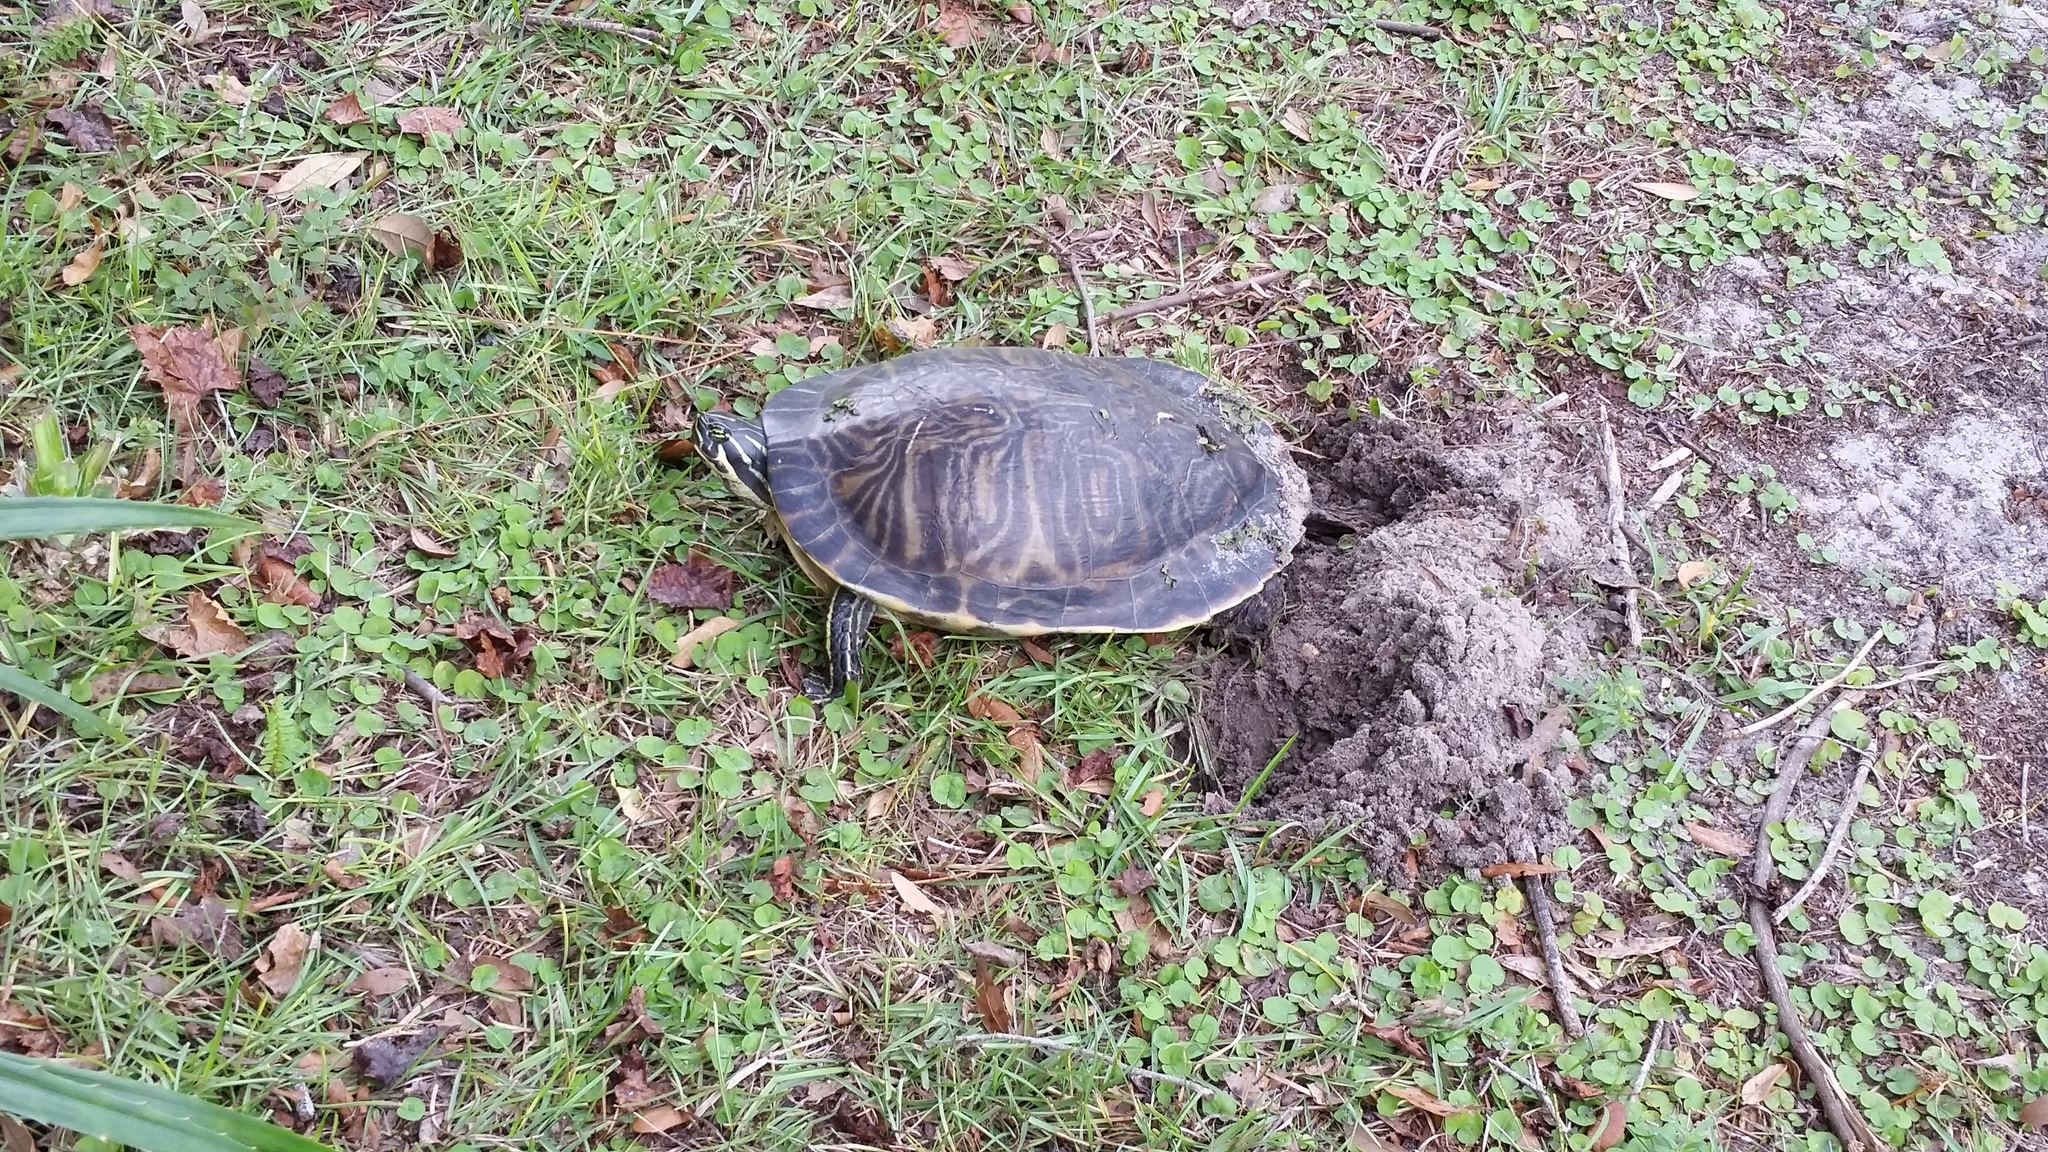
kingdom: Animalia
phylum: Chordata
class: Testudines
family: Emydidae
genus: Pseudemys
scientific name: Pseudemys peninsularis
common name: Peninsula cooter
